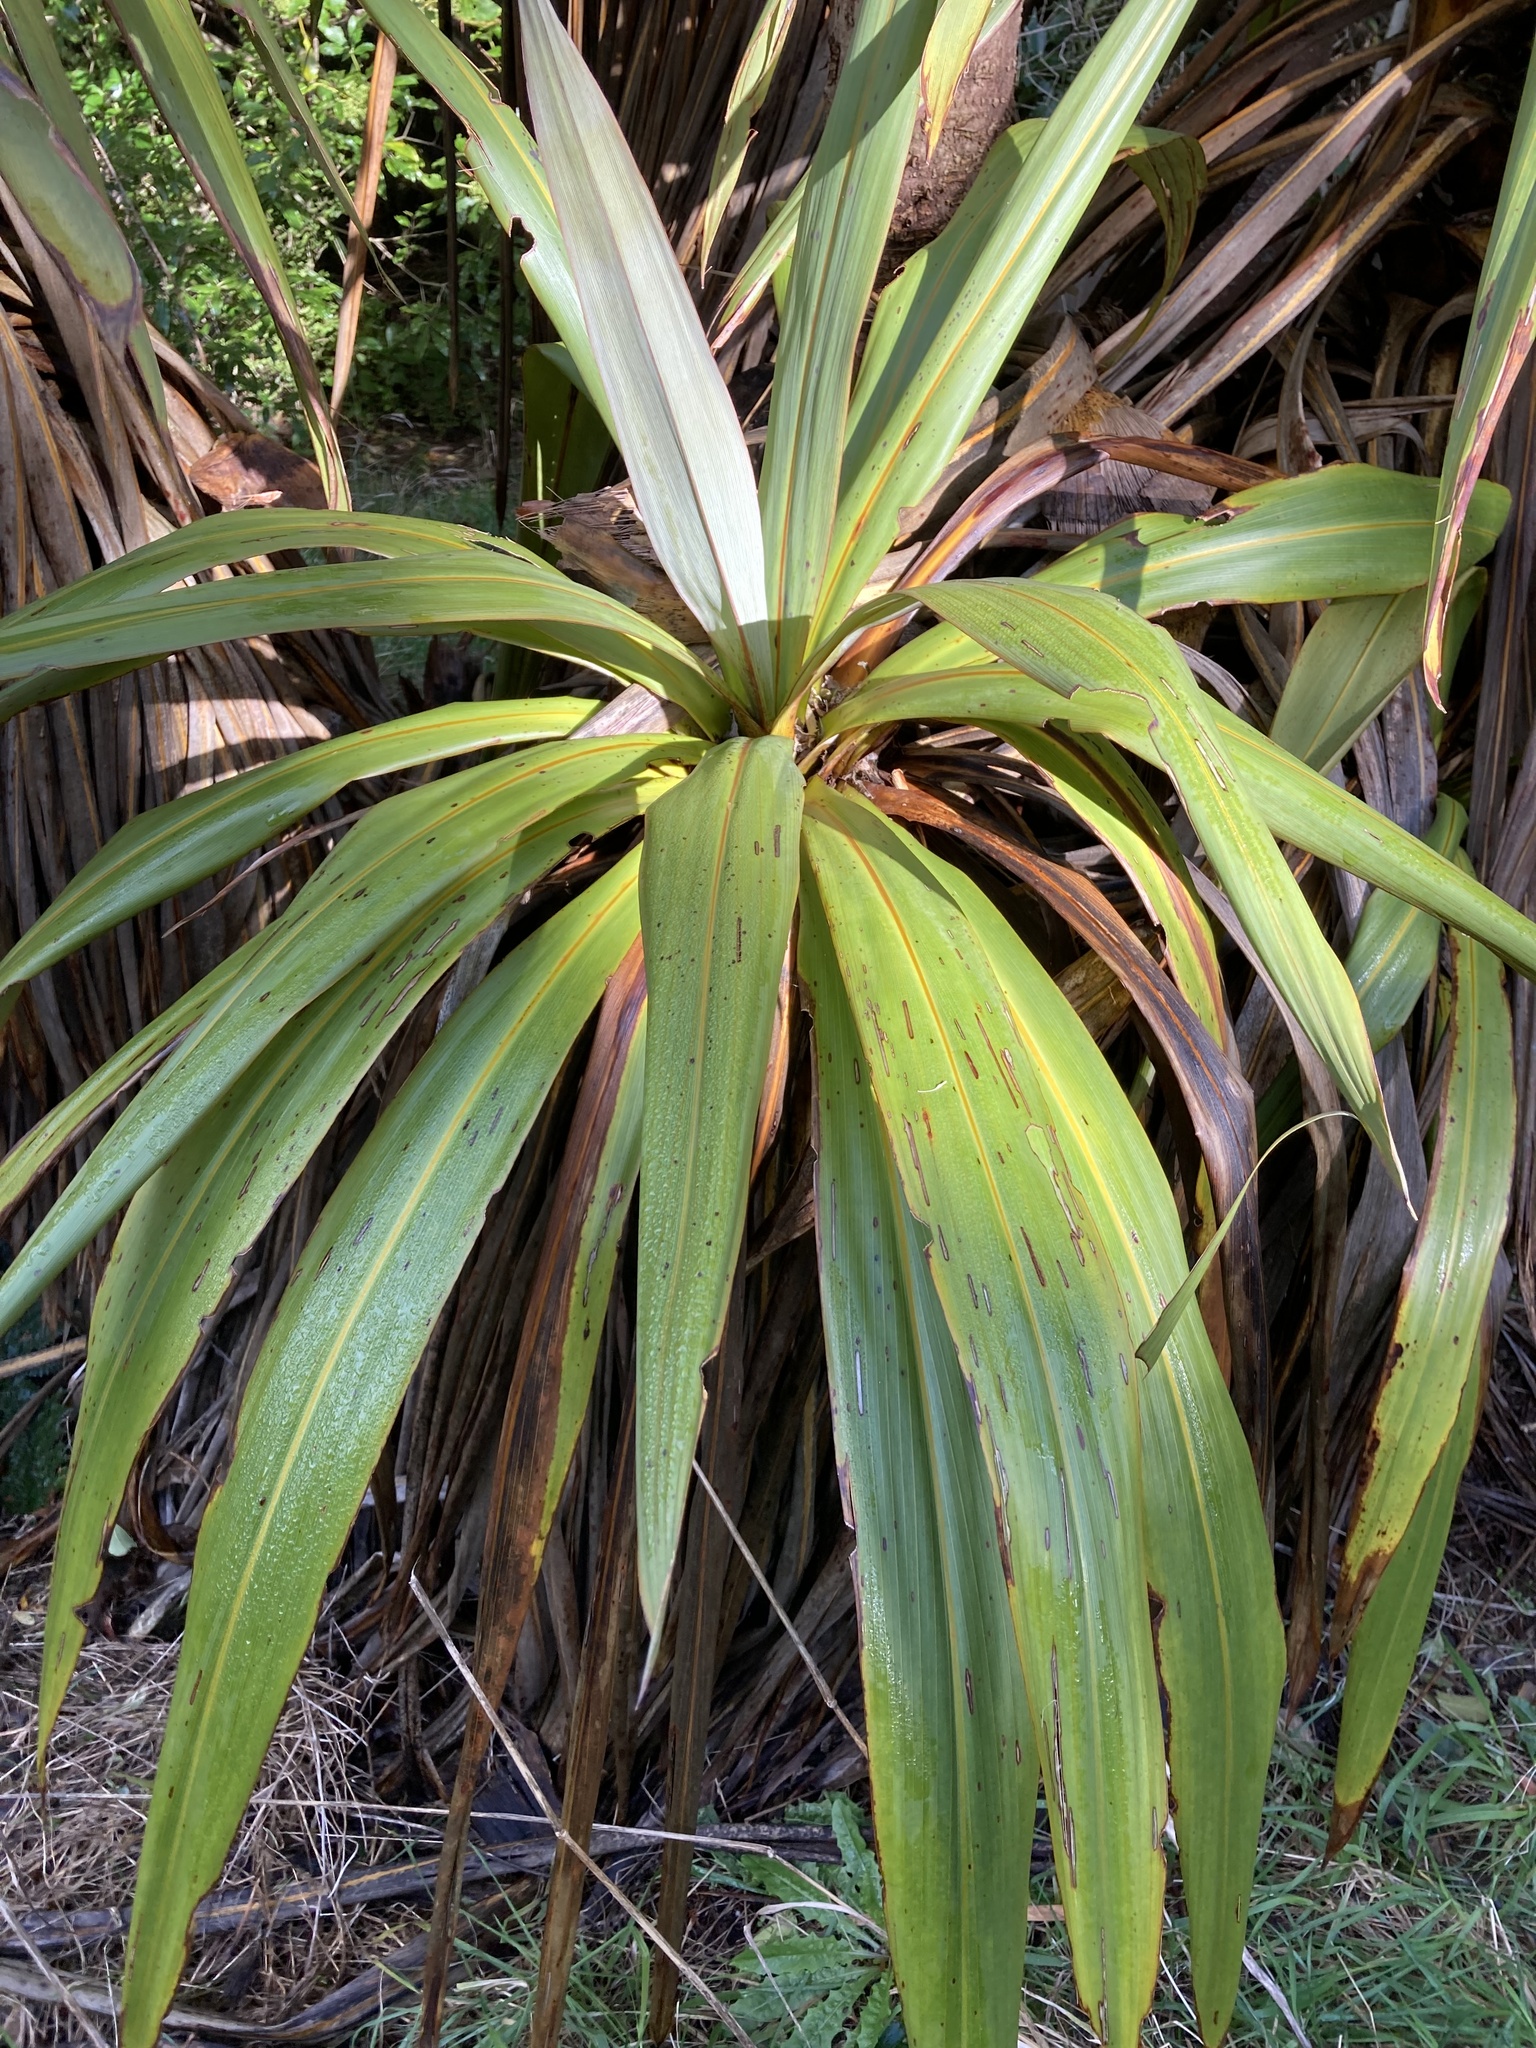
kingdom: Plantae
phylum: Tracheophyta
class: Liliopsida
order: Asparagales
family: Asparagaceae
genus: Cordyline
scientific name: Cordyline indivisa
